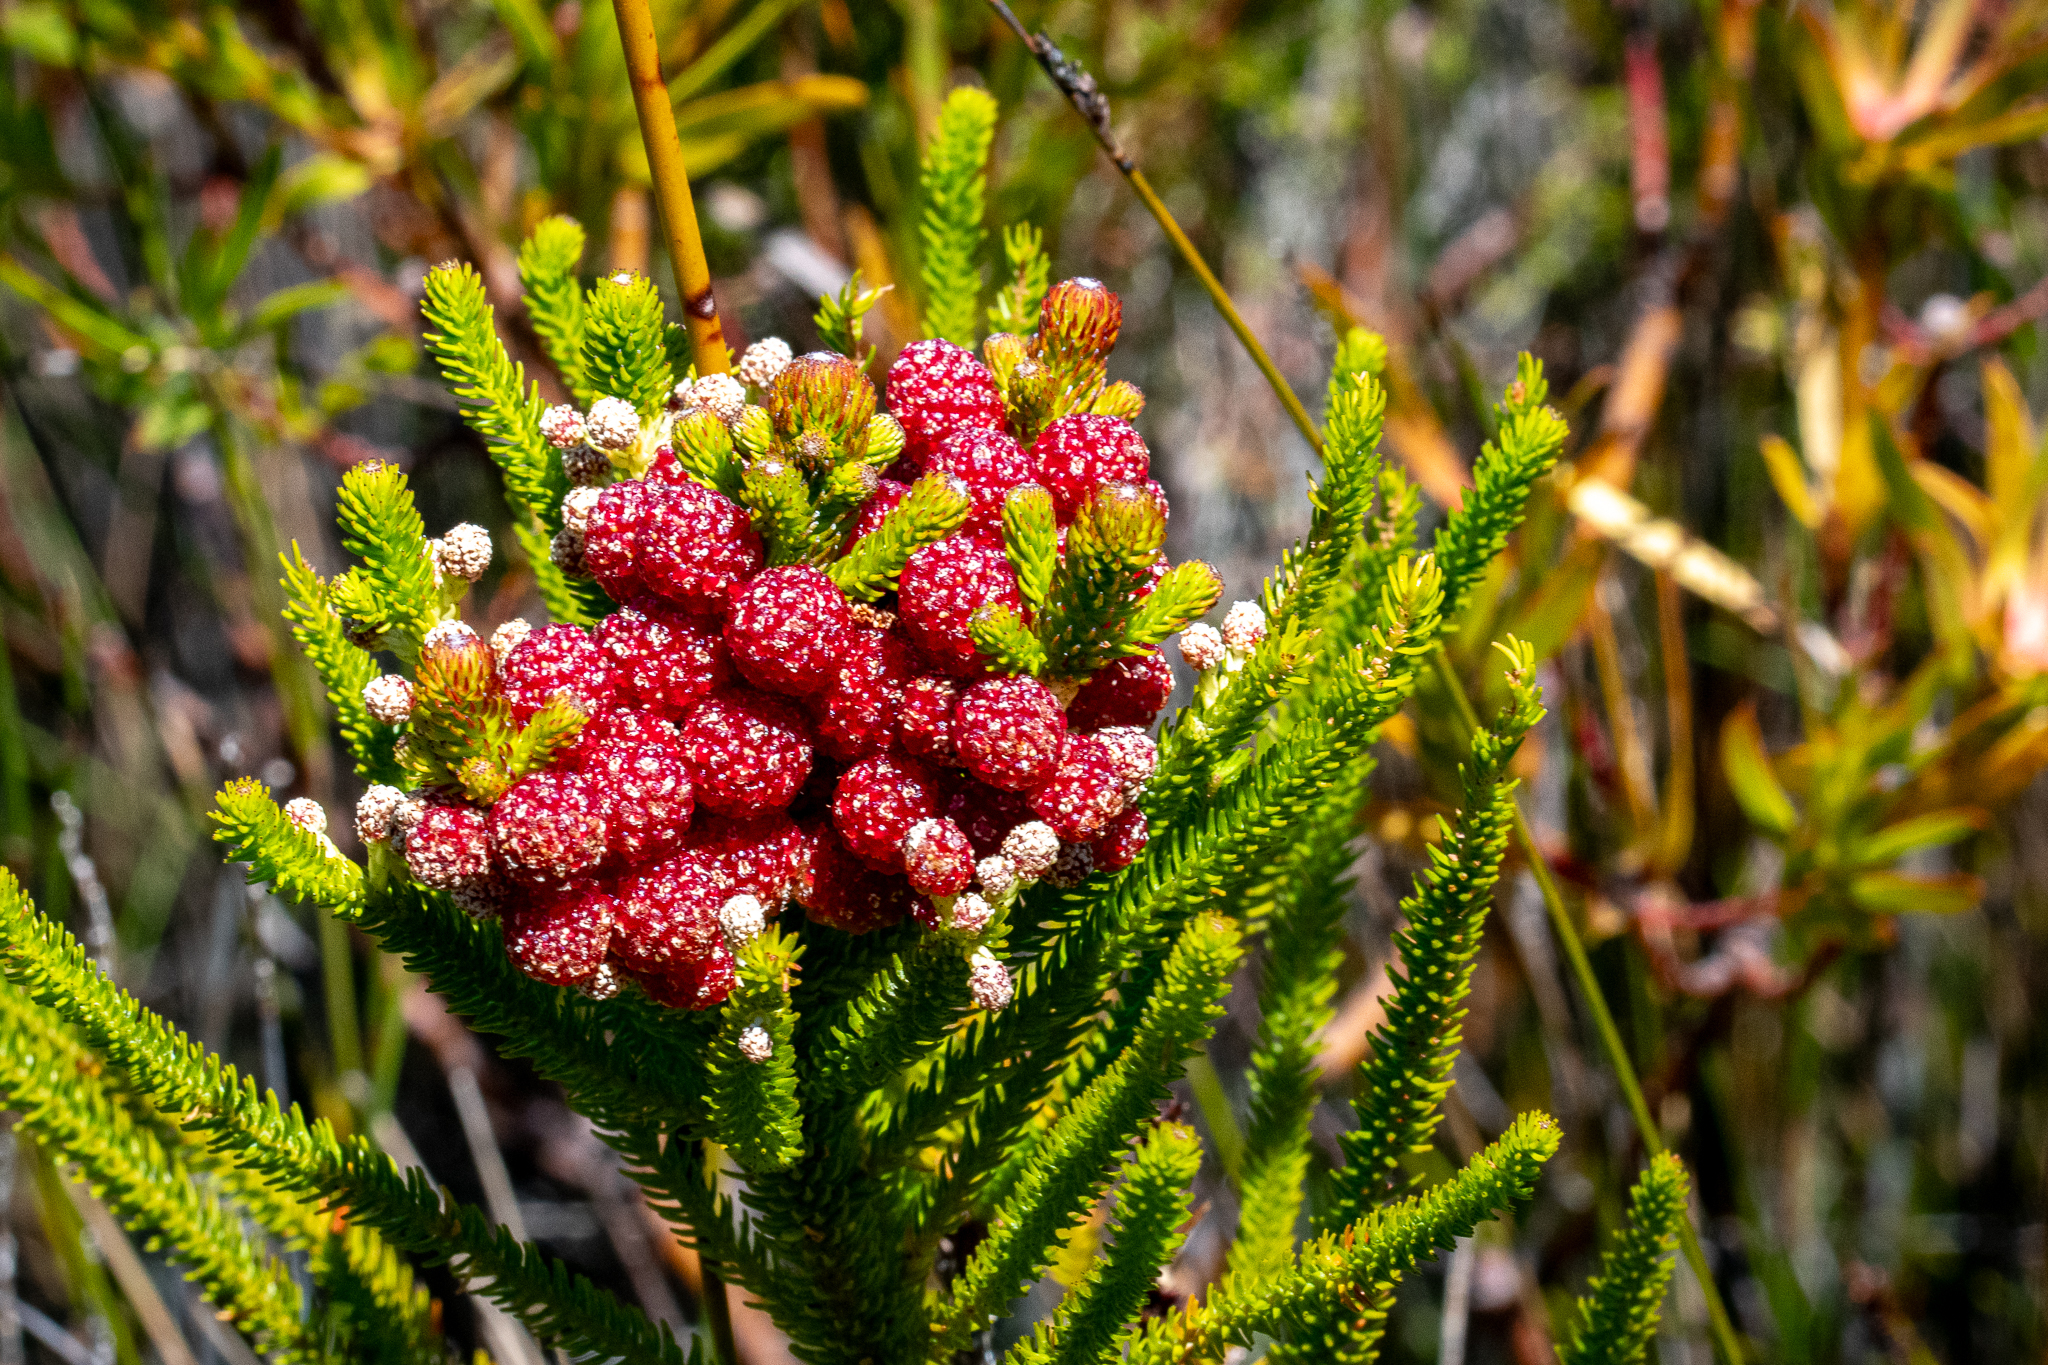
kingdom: Plantae
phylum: Tracheophyta
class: Magnoliopsida
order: Bruniales
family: Bruniaceae
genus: Berzelia
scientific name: Berzelia alopecurioides
